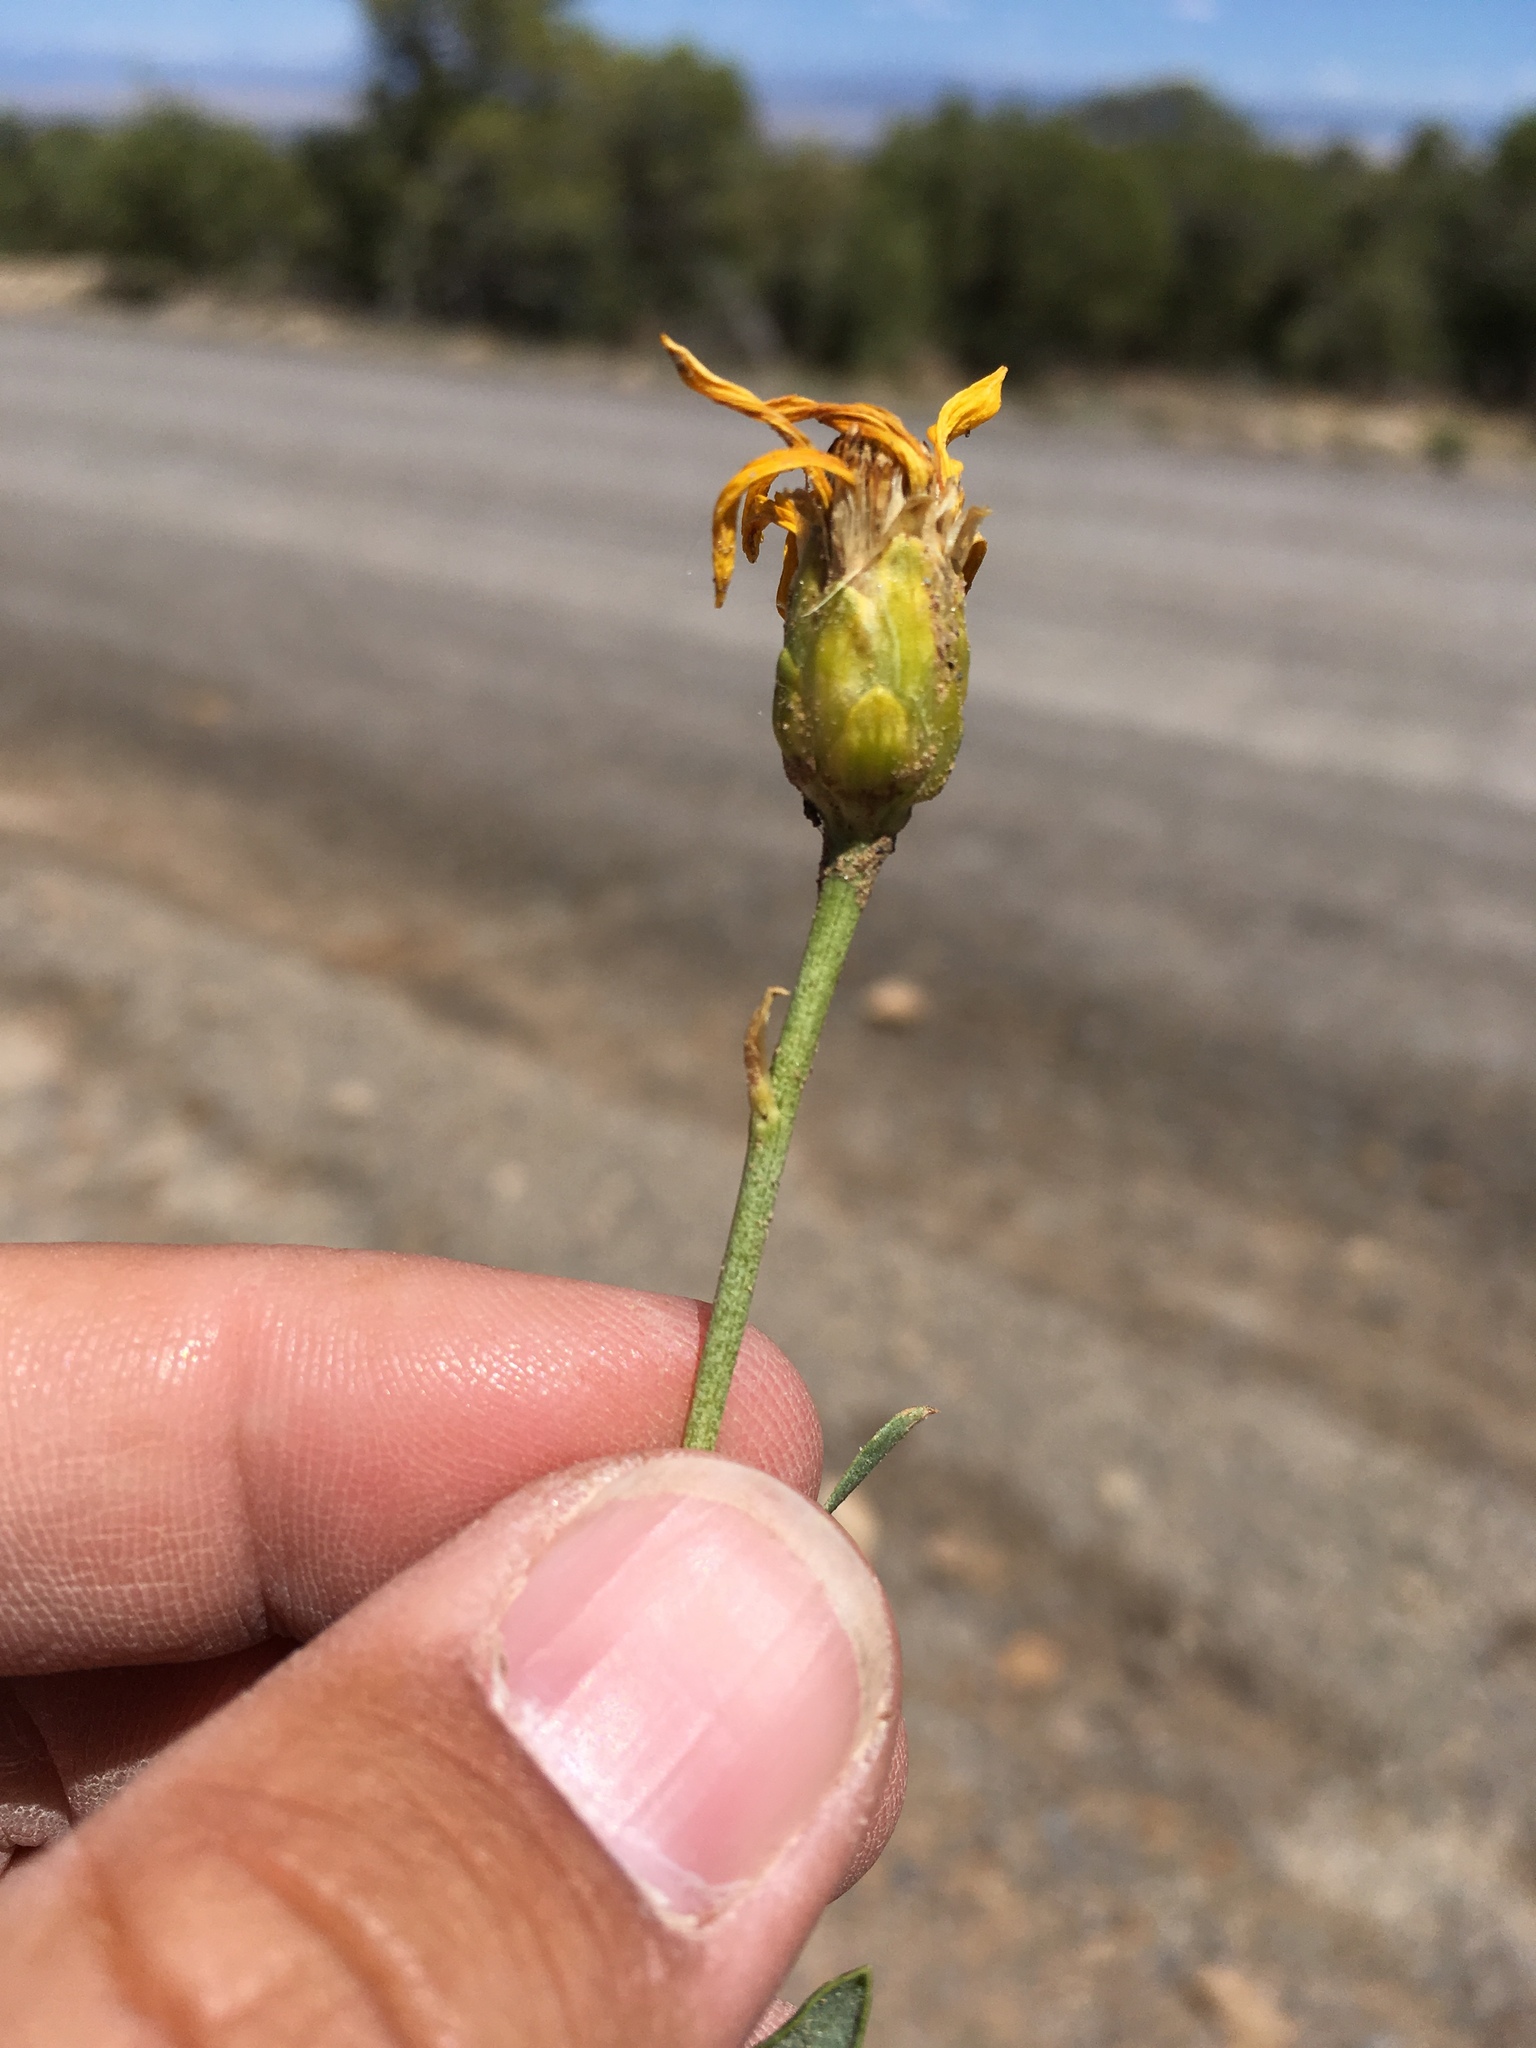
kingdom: Plantae
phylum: Tracheophyta
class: Magnoliopsida
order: Asterales
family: Asteraceae
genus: Stenotus
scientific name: Stenotus armerioides
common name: Thrifty goldenweed
